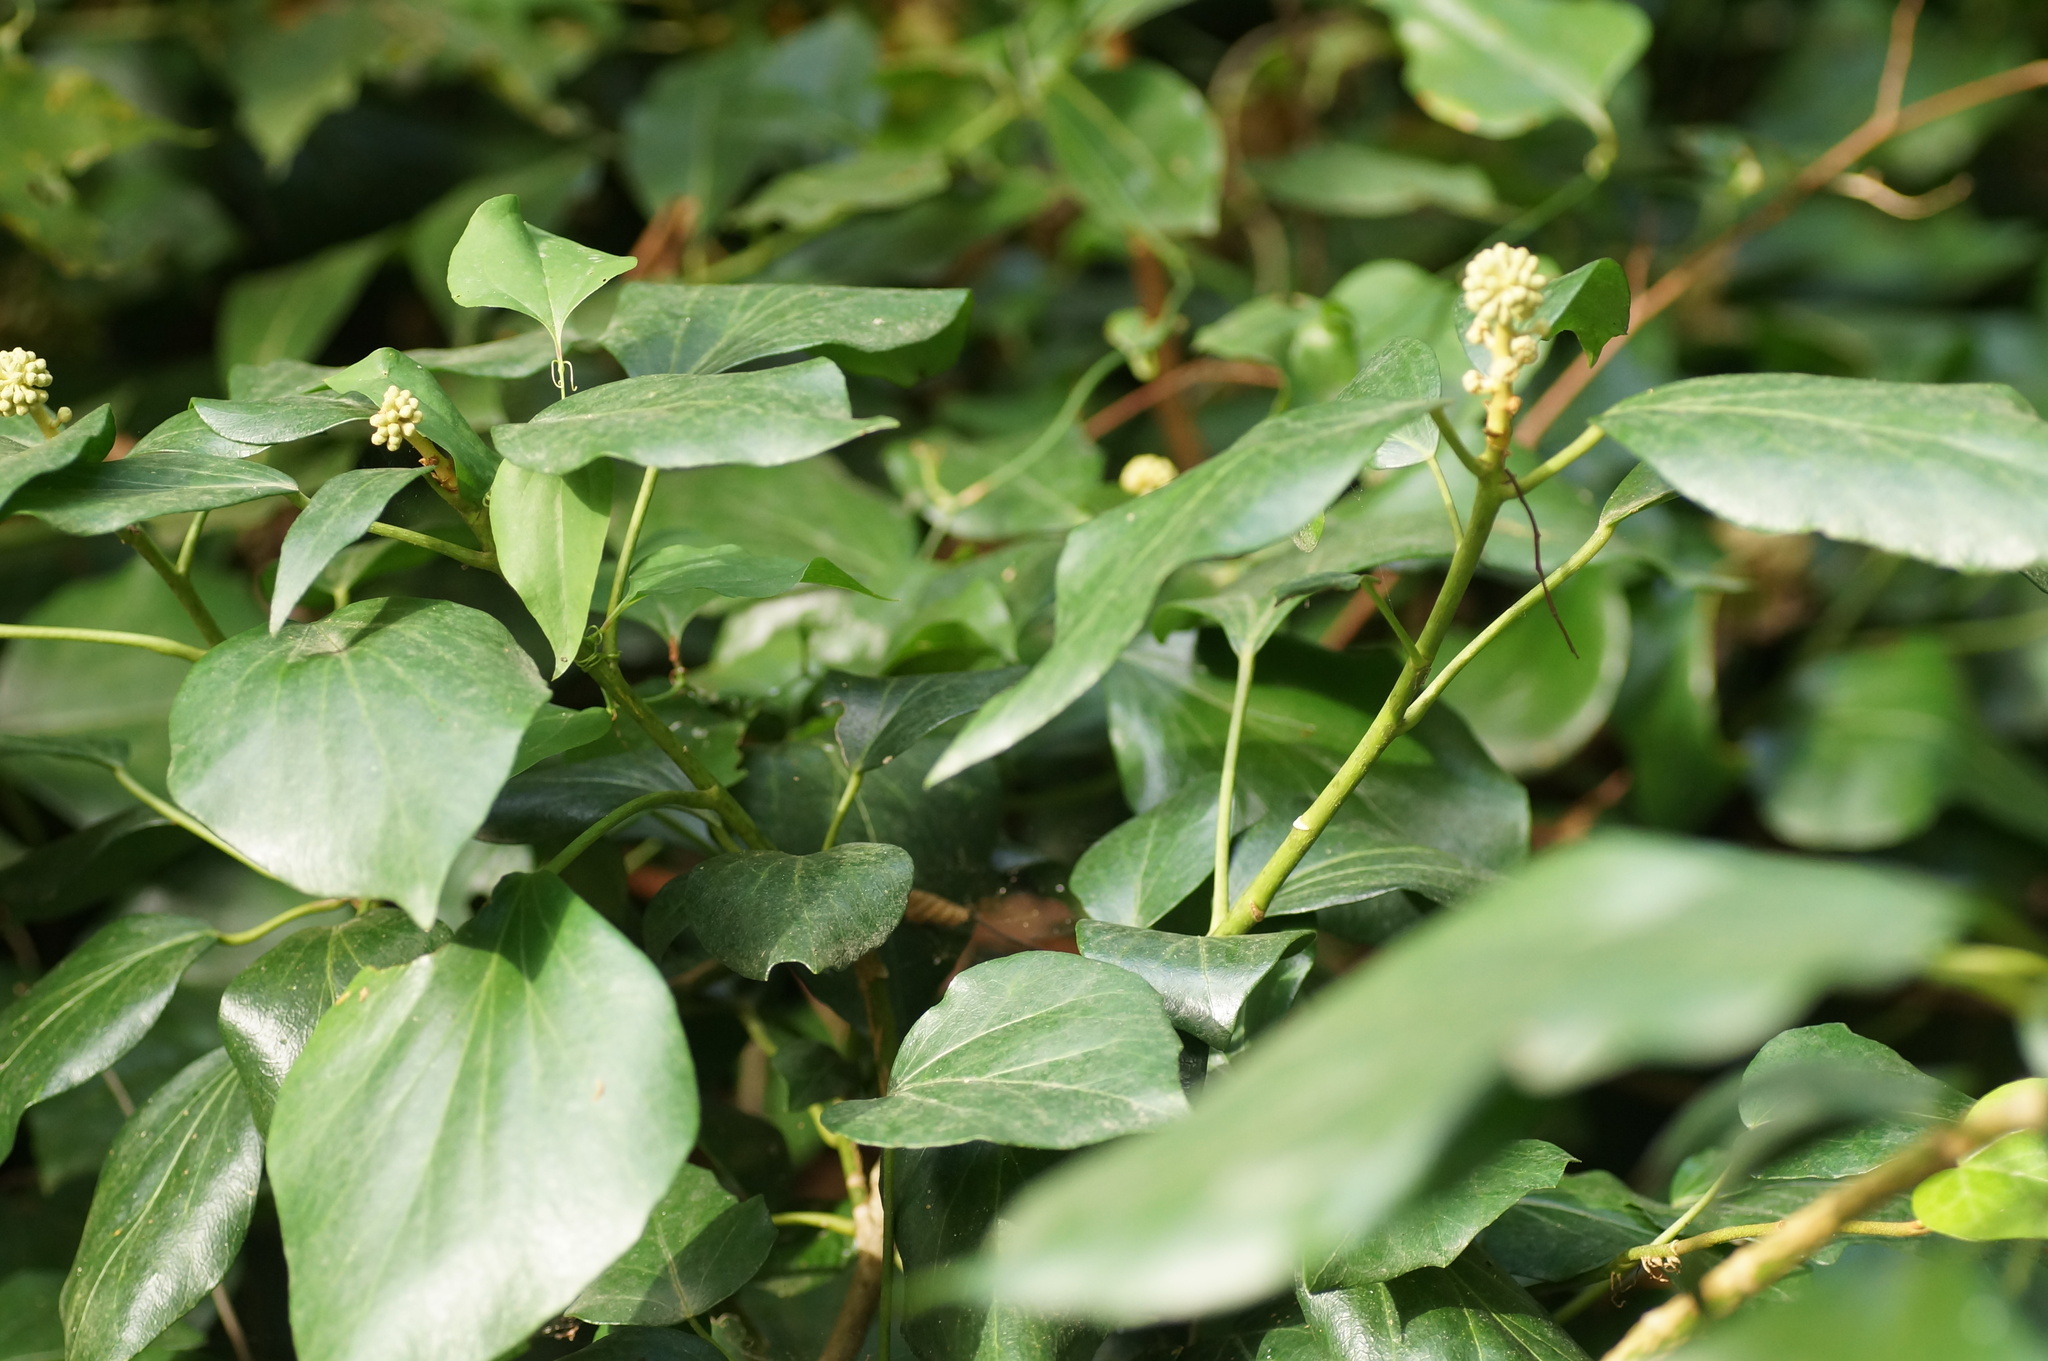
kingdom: Plantae
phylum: Tracheophyta
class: Magnoliopsida
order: Apiales
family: Araliaceae
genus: Hedera
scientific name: Hedera colchica
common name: Persian ivy
